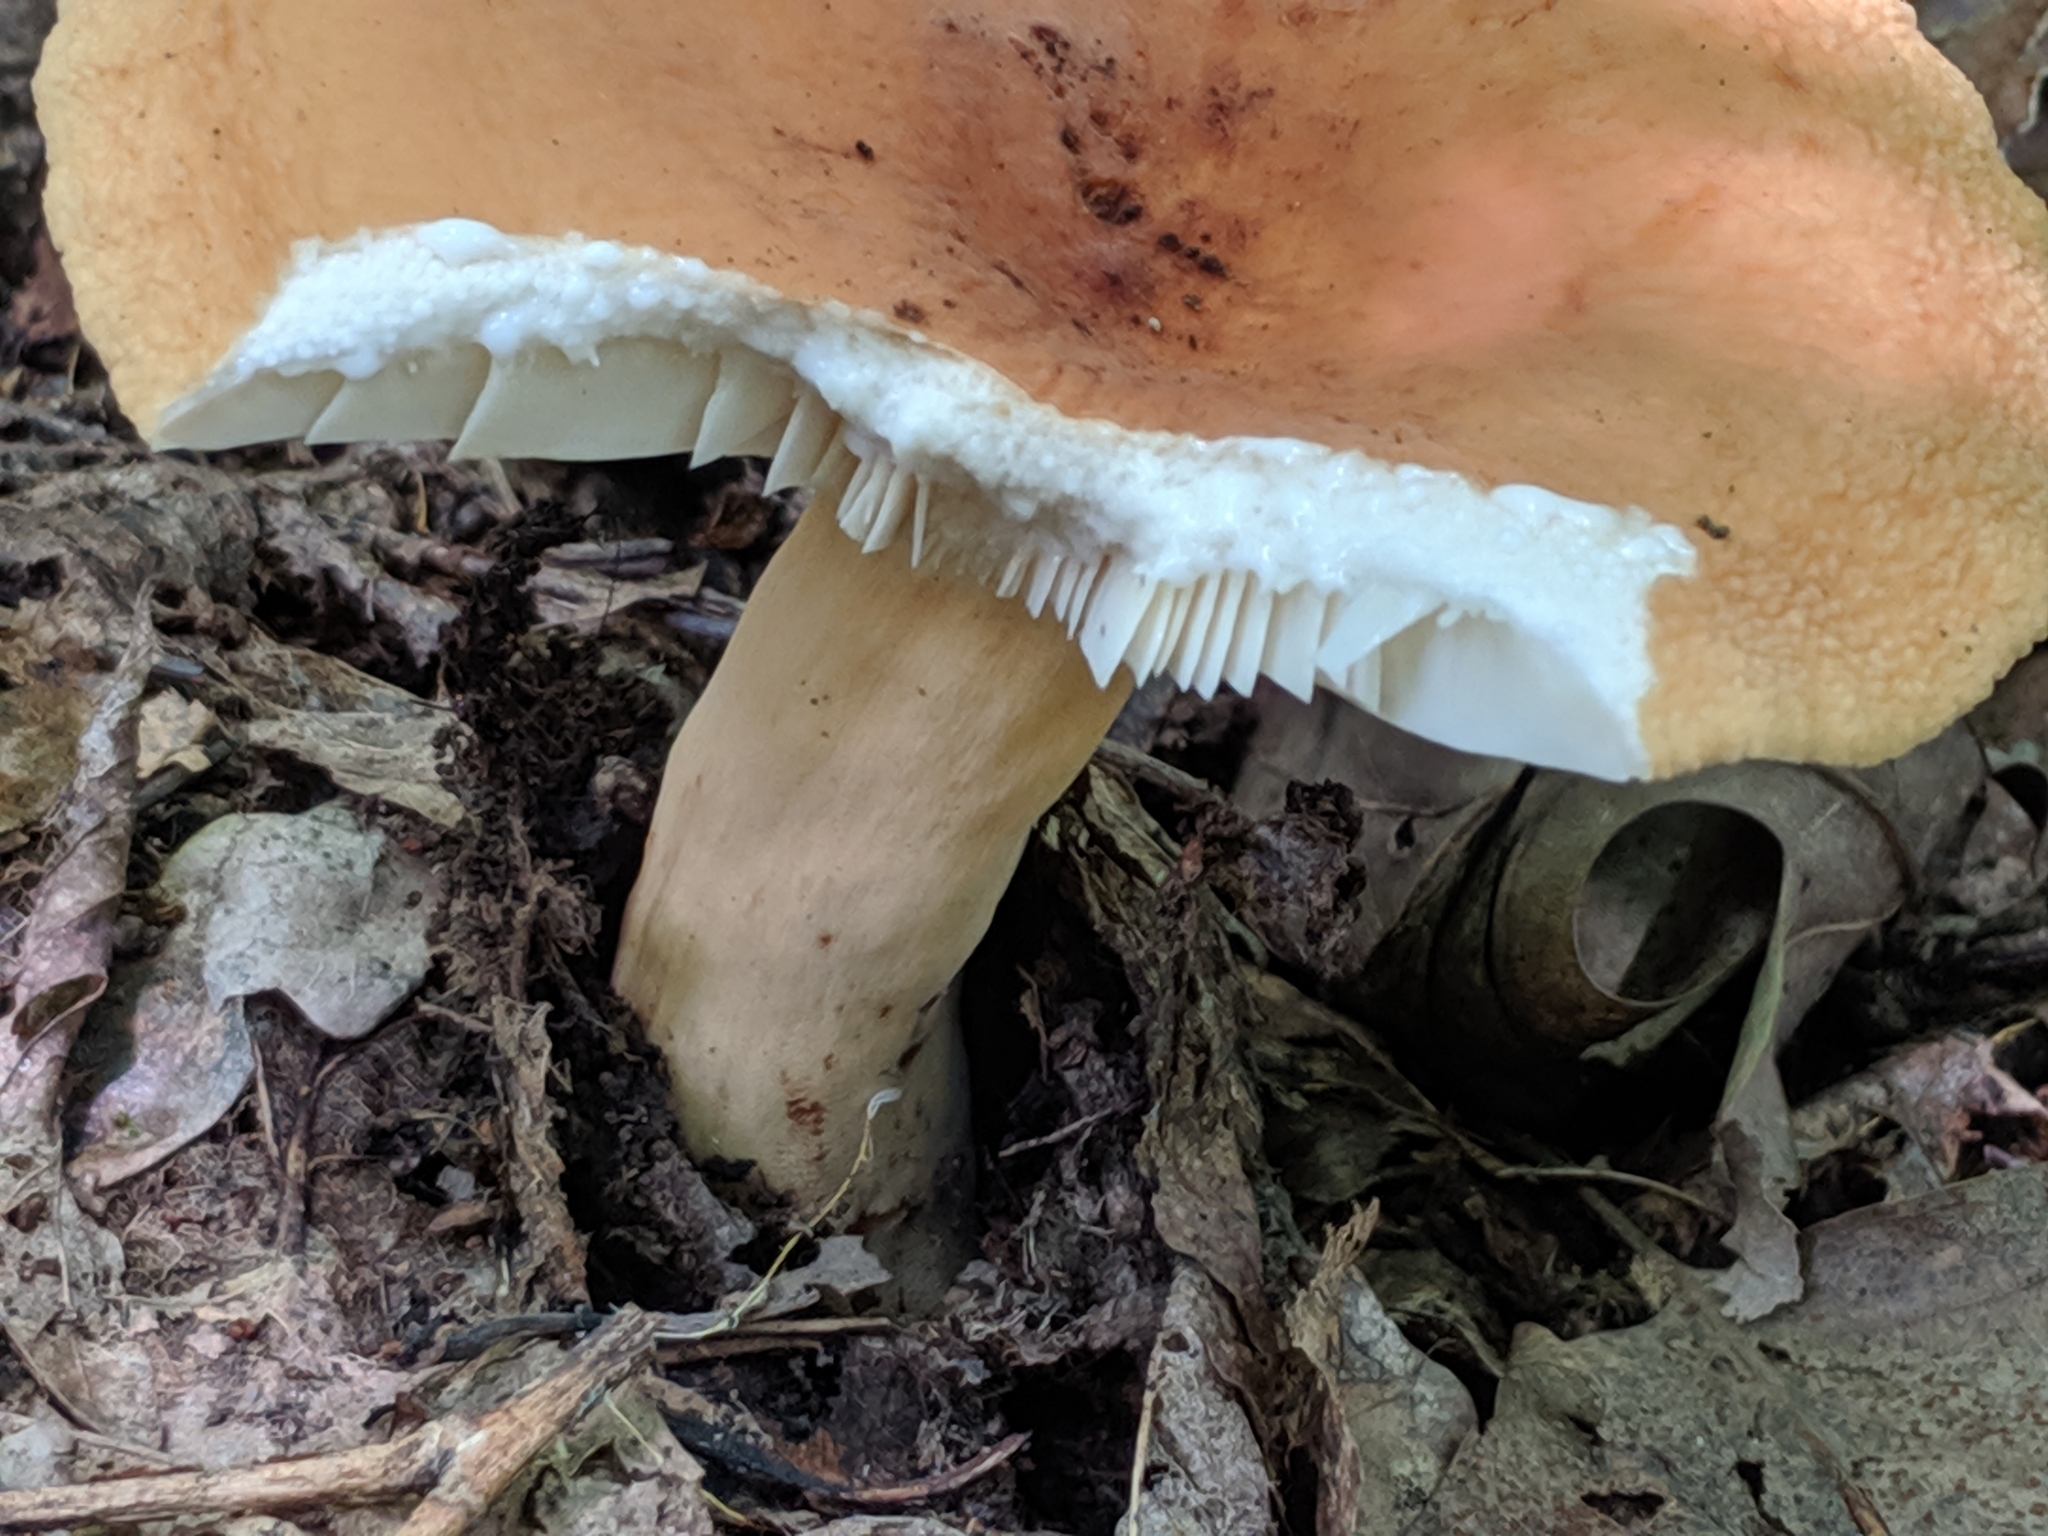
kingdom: Fungi
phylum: Basidiomycota
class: Agaricomycetes
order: Russulales
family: Russulaceae
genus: Lactifluus
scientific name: Lactifluus volemus
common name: Fishy milkcap
